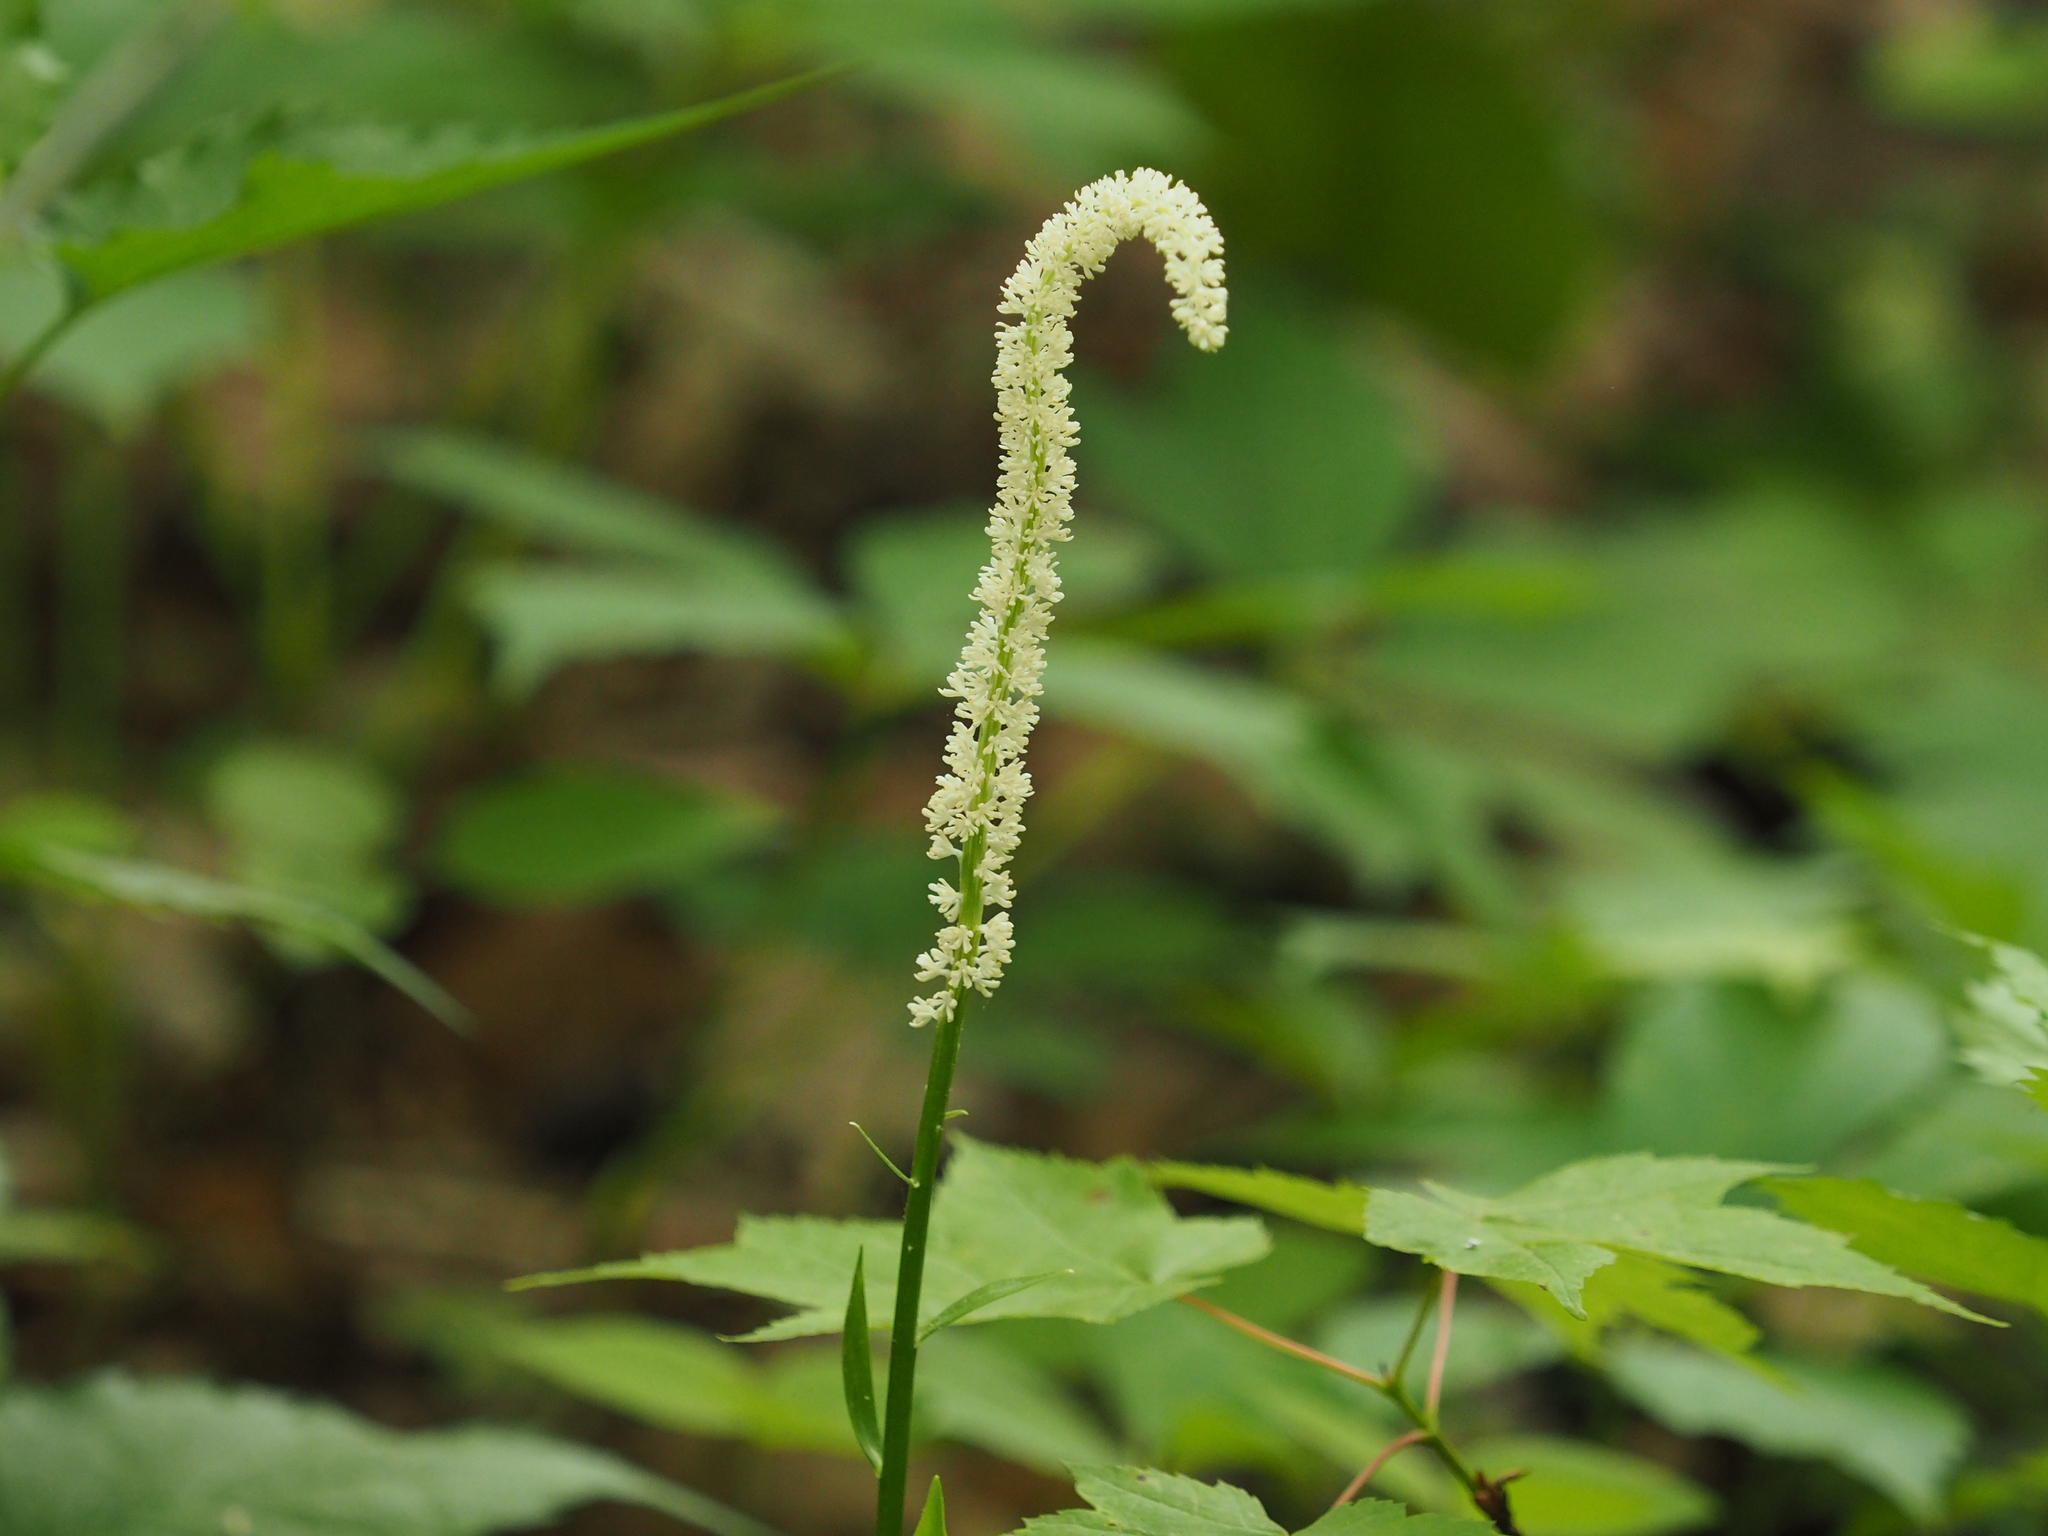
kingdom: Plantae
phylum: Tracheophyta
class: Liliopsida
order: Liliales
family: Melanthiaceae
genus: Chamaelirium
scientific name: Chamaelirium luteum
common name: Fairy-wand
